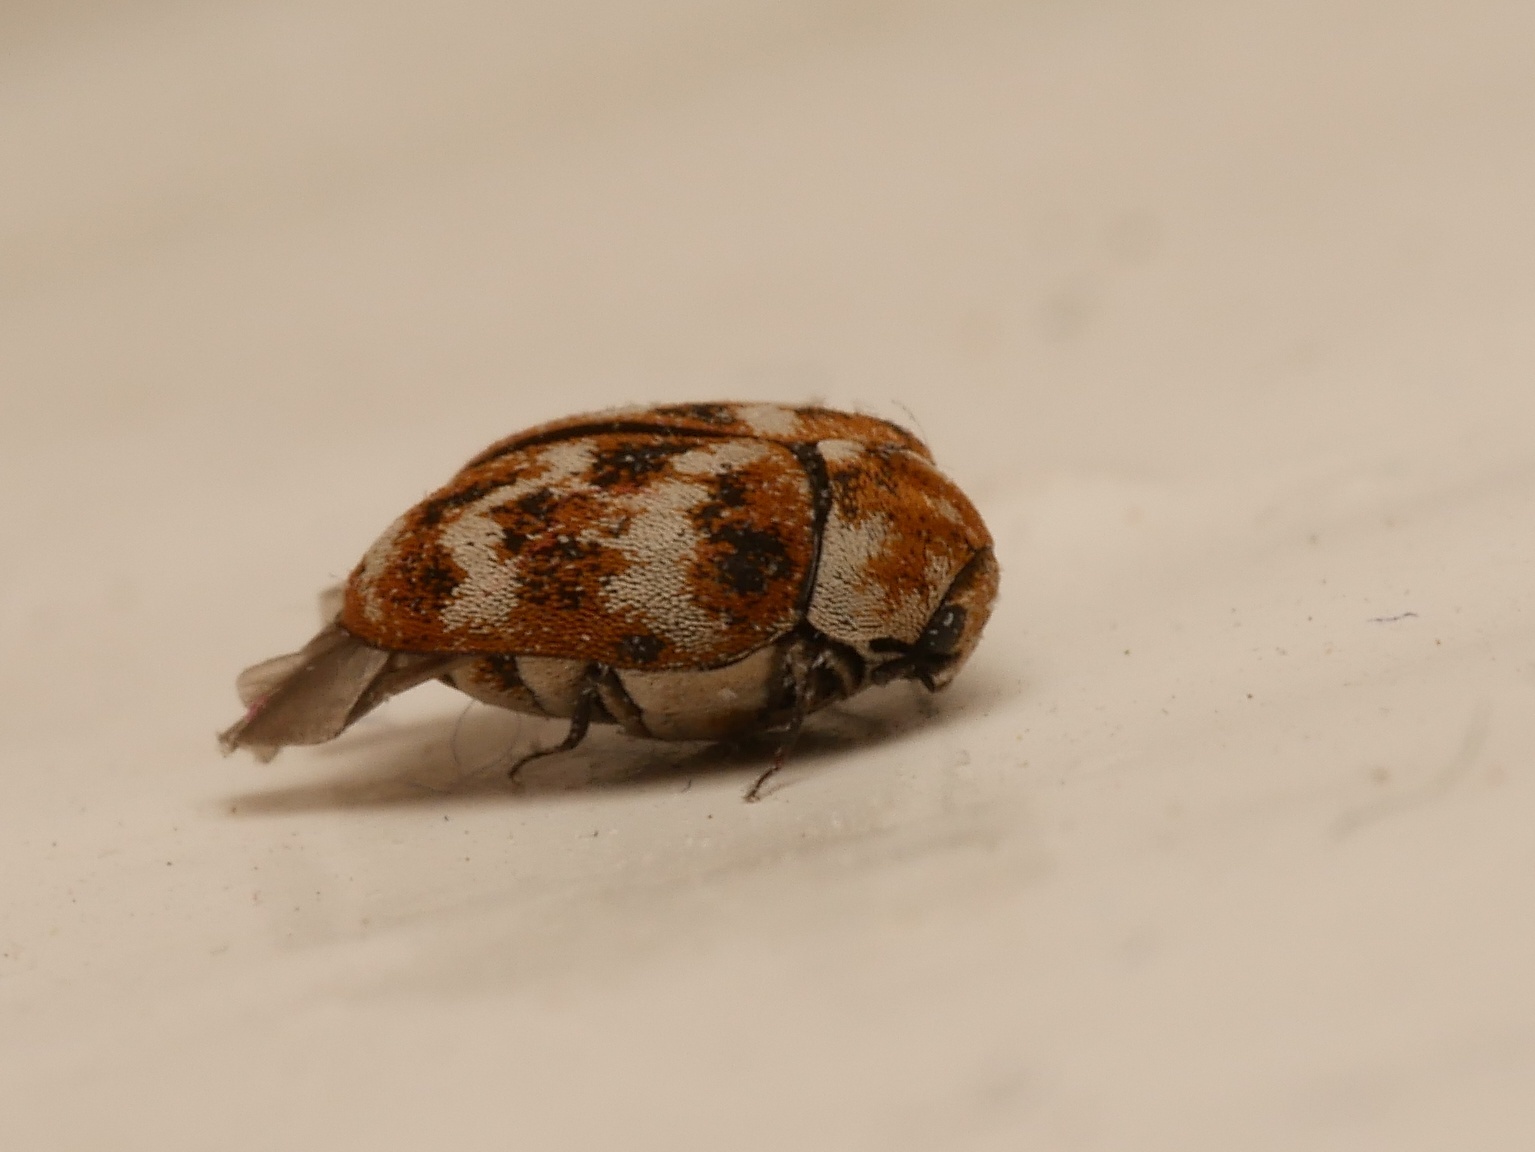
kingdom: Animalia
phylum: Arthropoda
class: Insecta
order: Coleoptera
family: Dermestidae
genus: Anthrenus
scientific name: Anthrenus verbasci
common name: Varied carpet beetle
